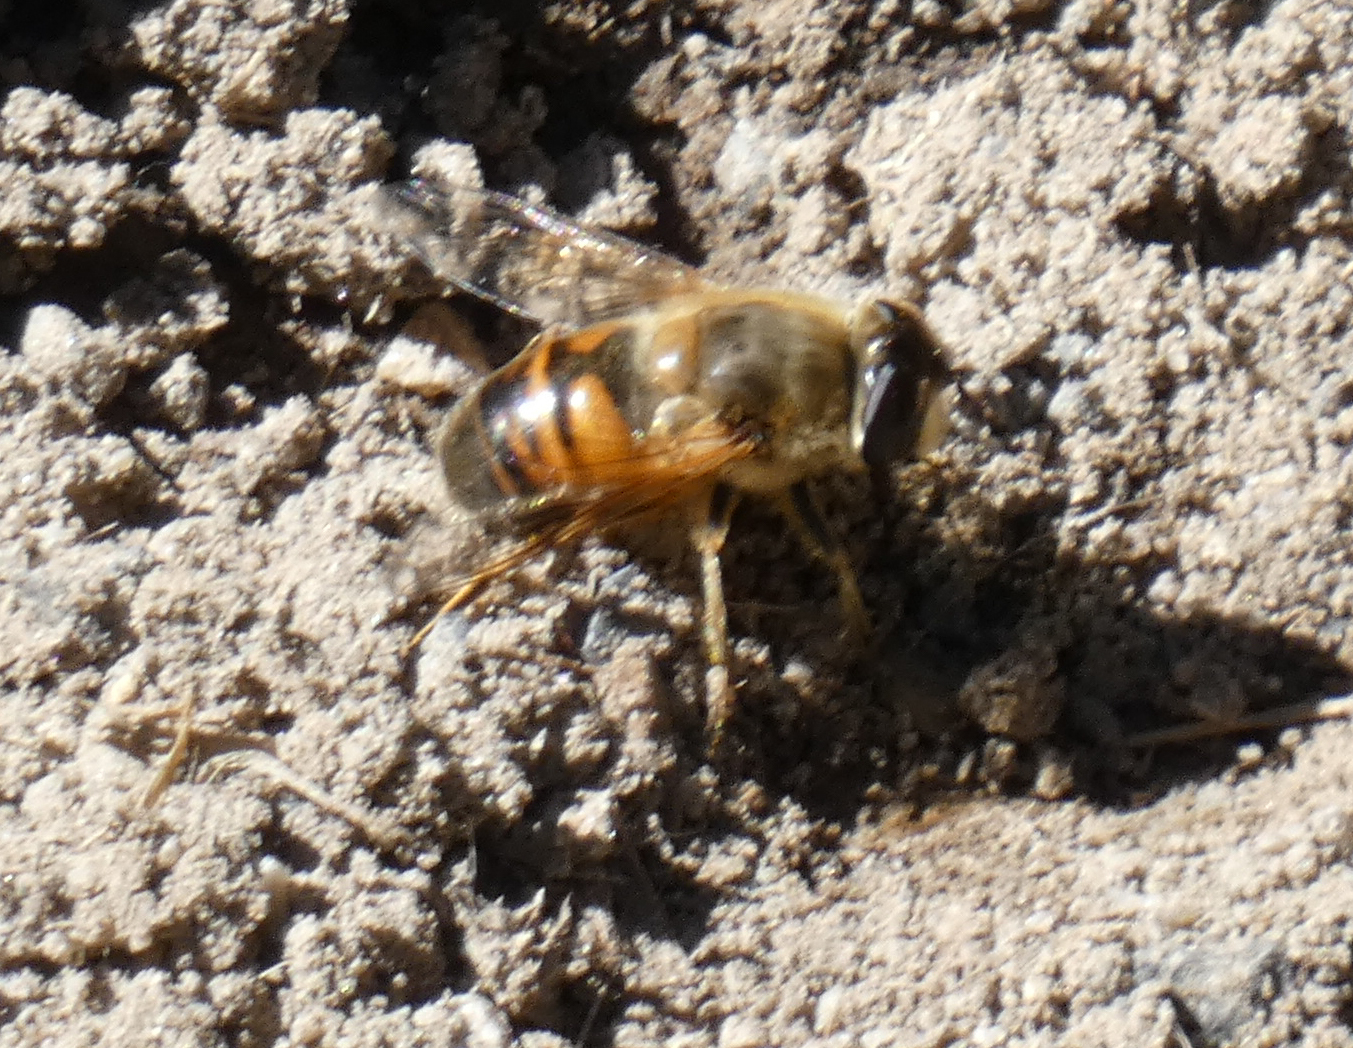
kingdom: Animalia
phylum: Arthropoda
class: Insecta
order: Diptera
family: Syrphidae
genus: Eristalis
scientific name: Eristalis tenax
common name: Drone fly
